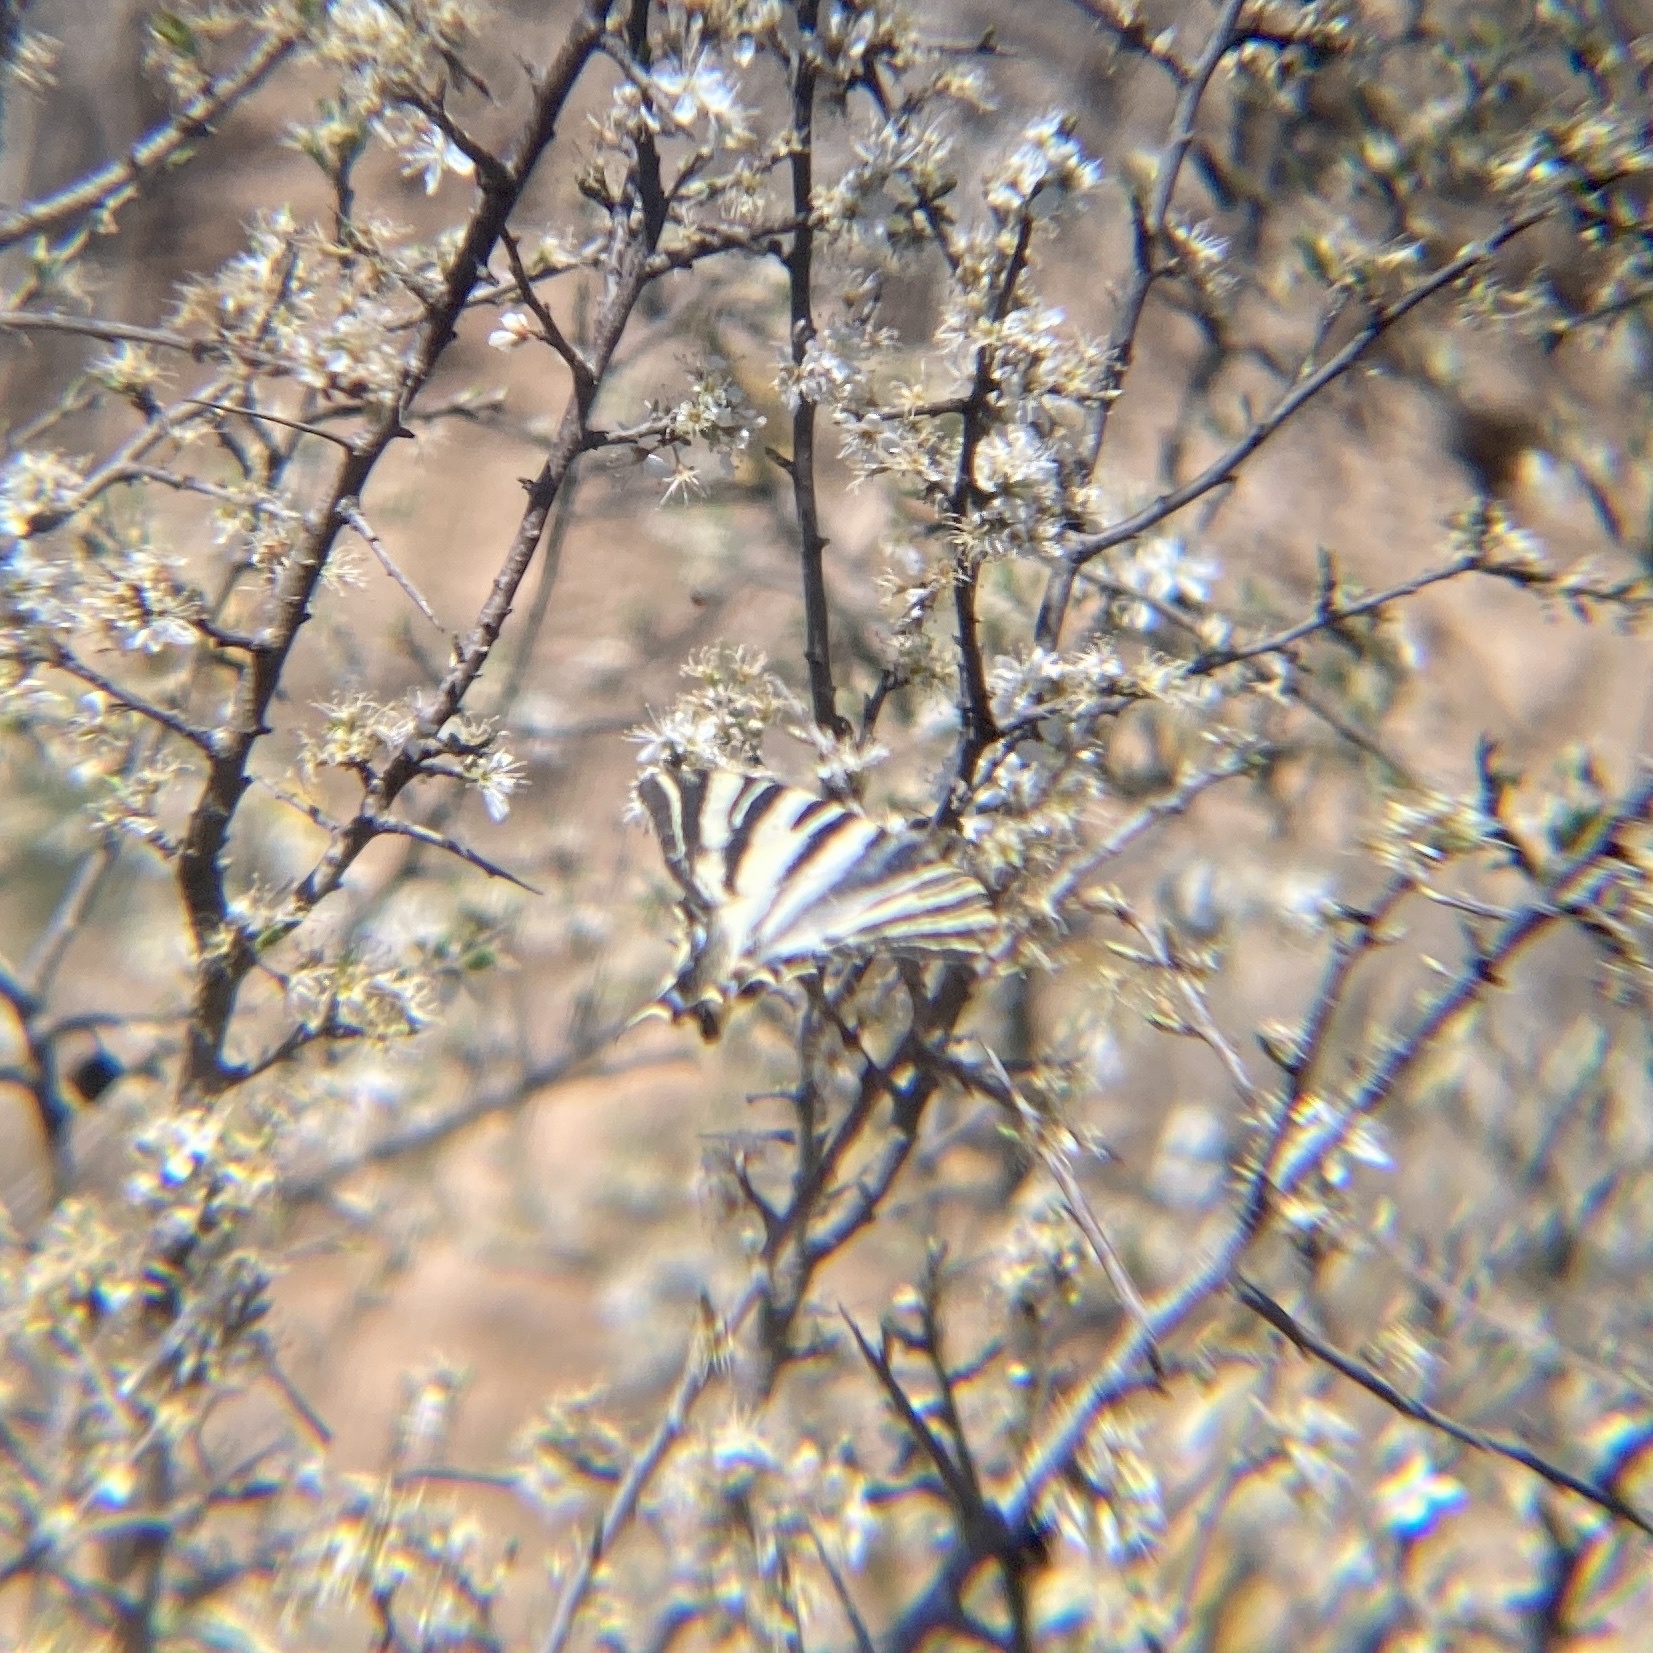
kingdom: Animalia
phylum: Arthropoda
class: Insecta
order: Lepidoptera
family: Papilionidae
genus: Iphiclides
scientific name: Iphiclides feisthamelii
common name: Iberian scarce swallowtail
